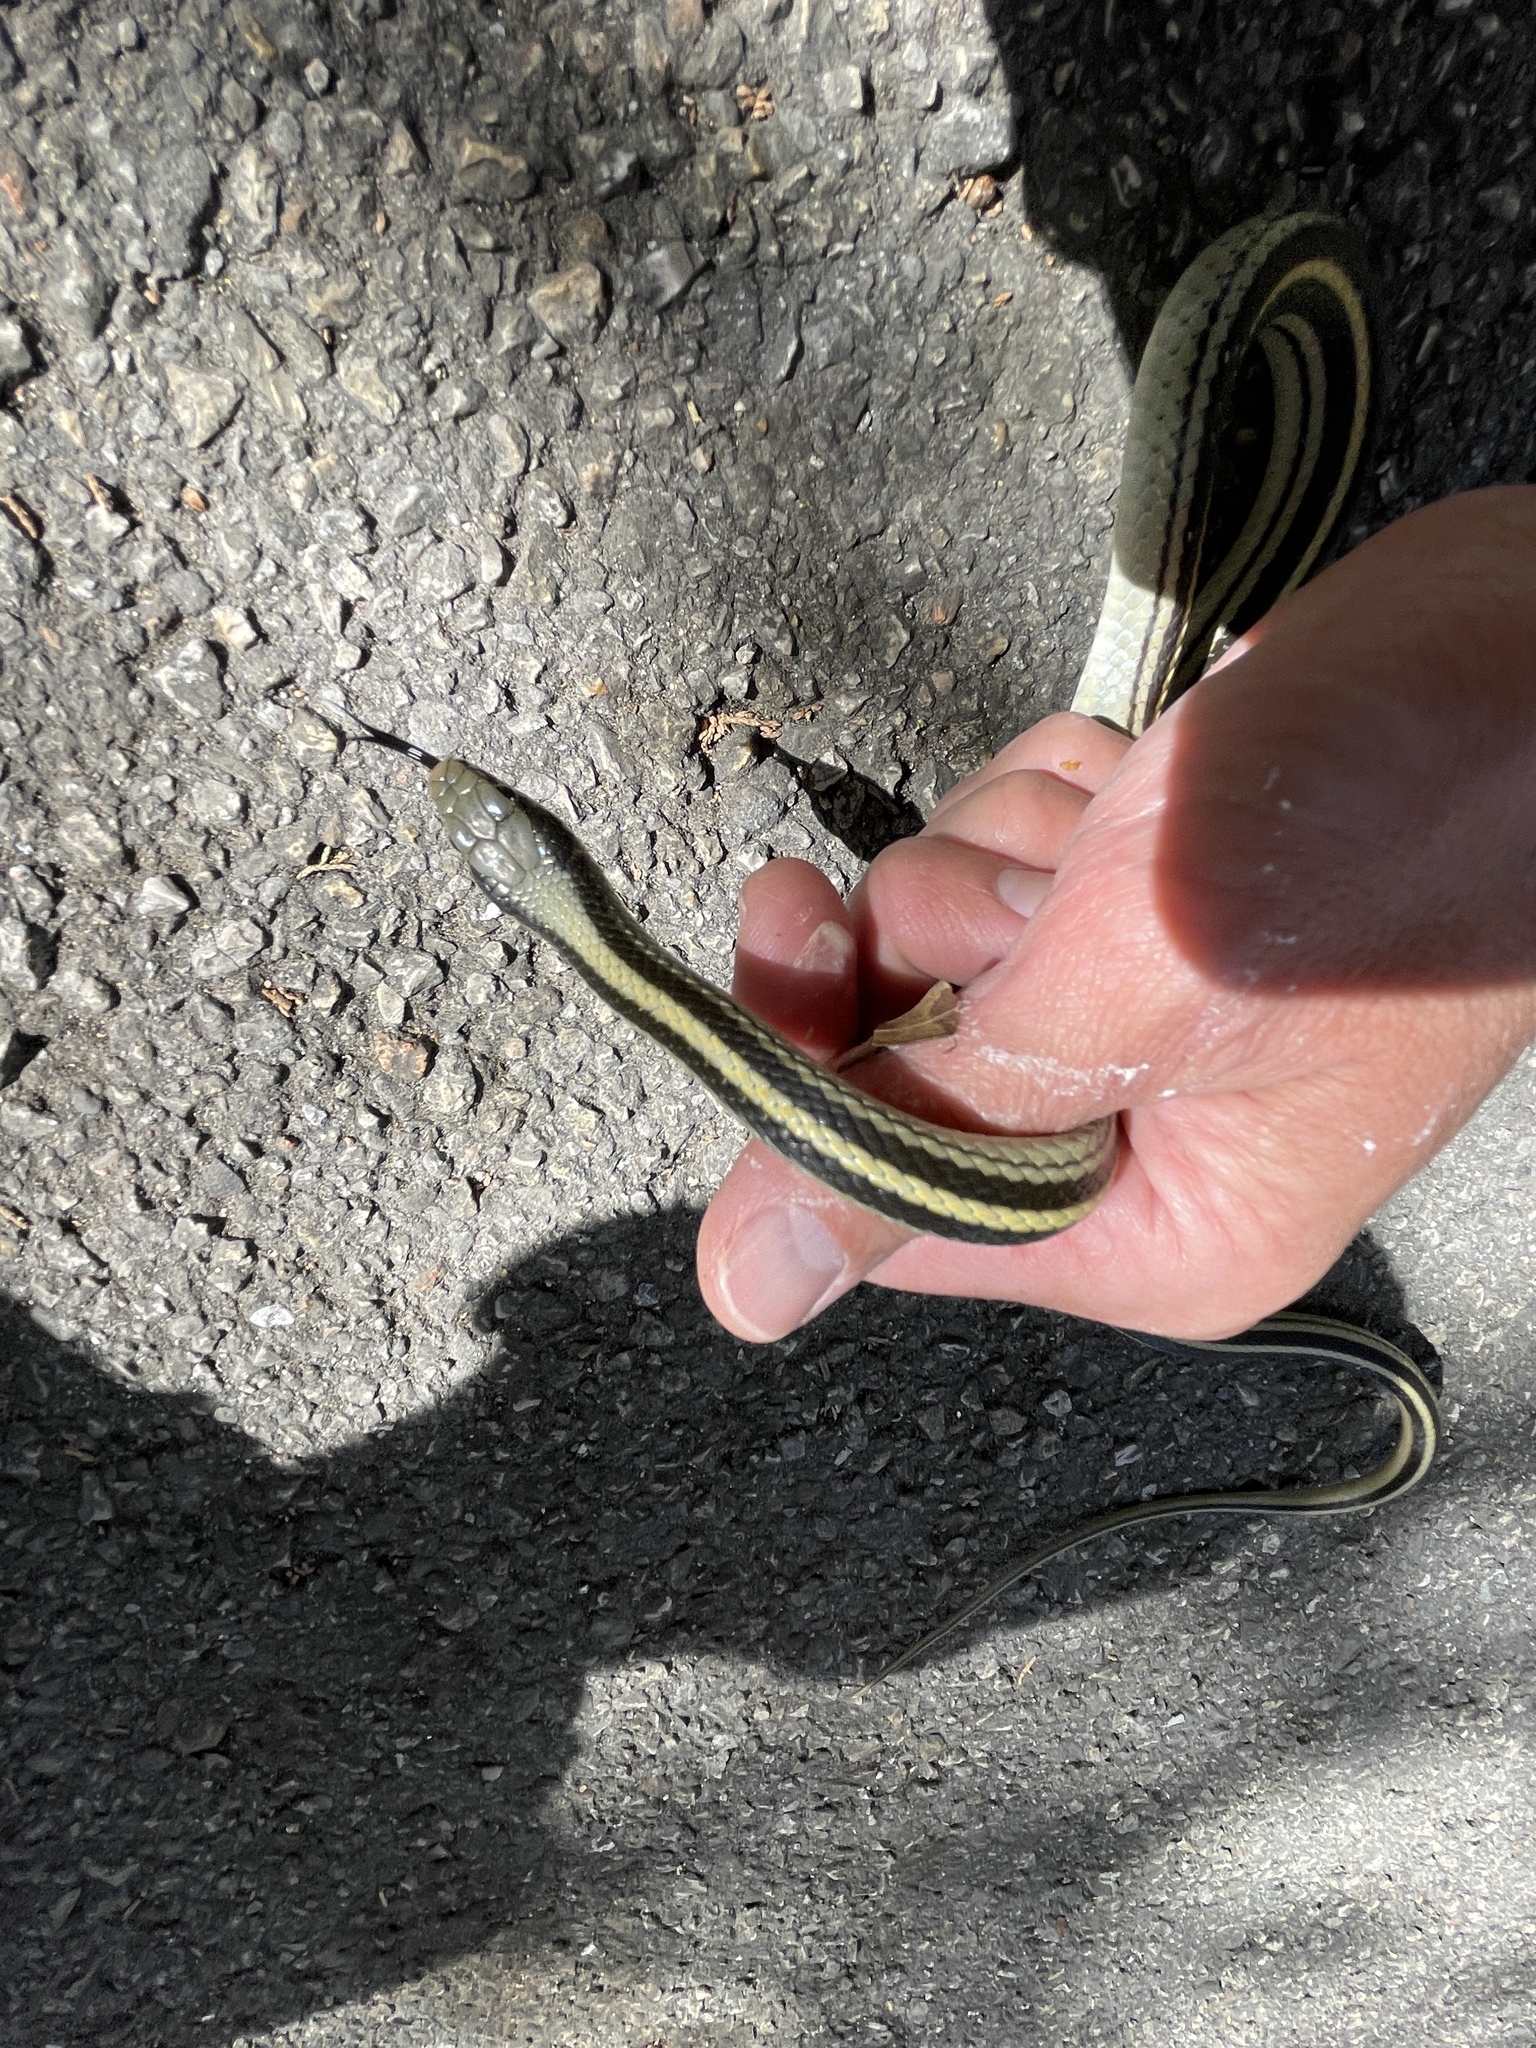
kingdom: Animalia
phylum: Chordata
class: Squamata
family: Colubridae
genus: Salvadora
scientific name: Salvadora lineata
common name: Texas patchnose snake
